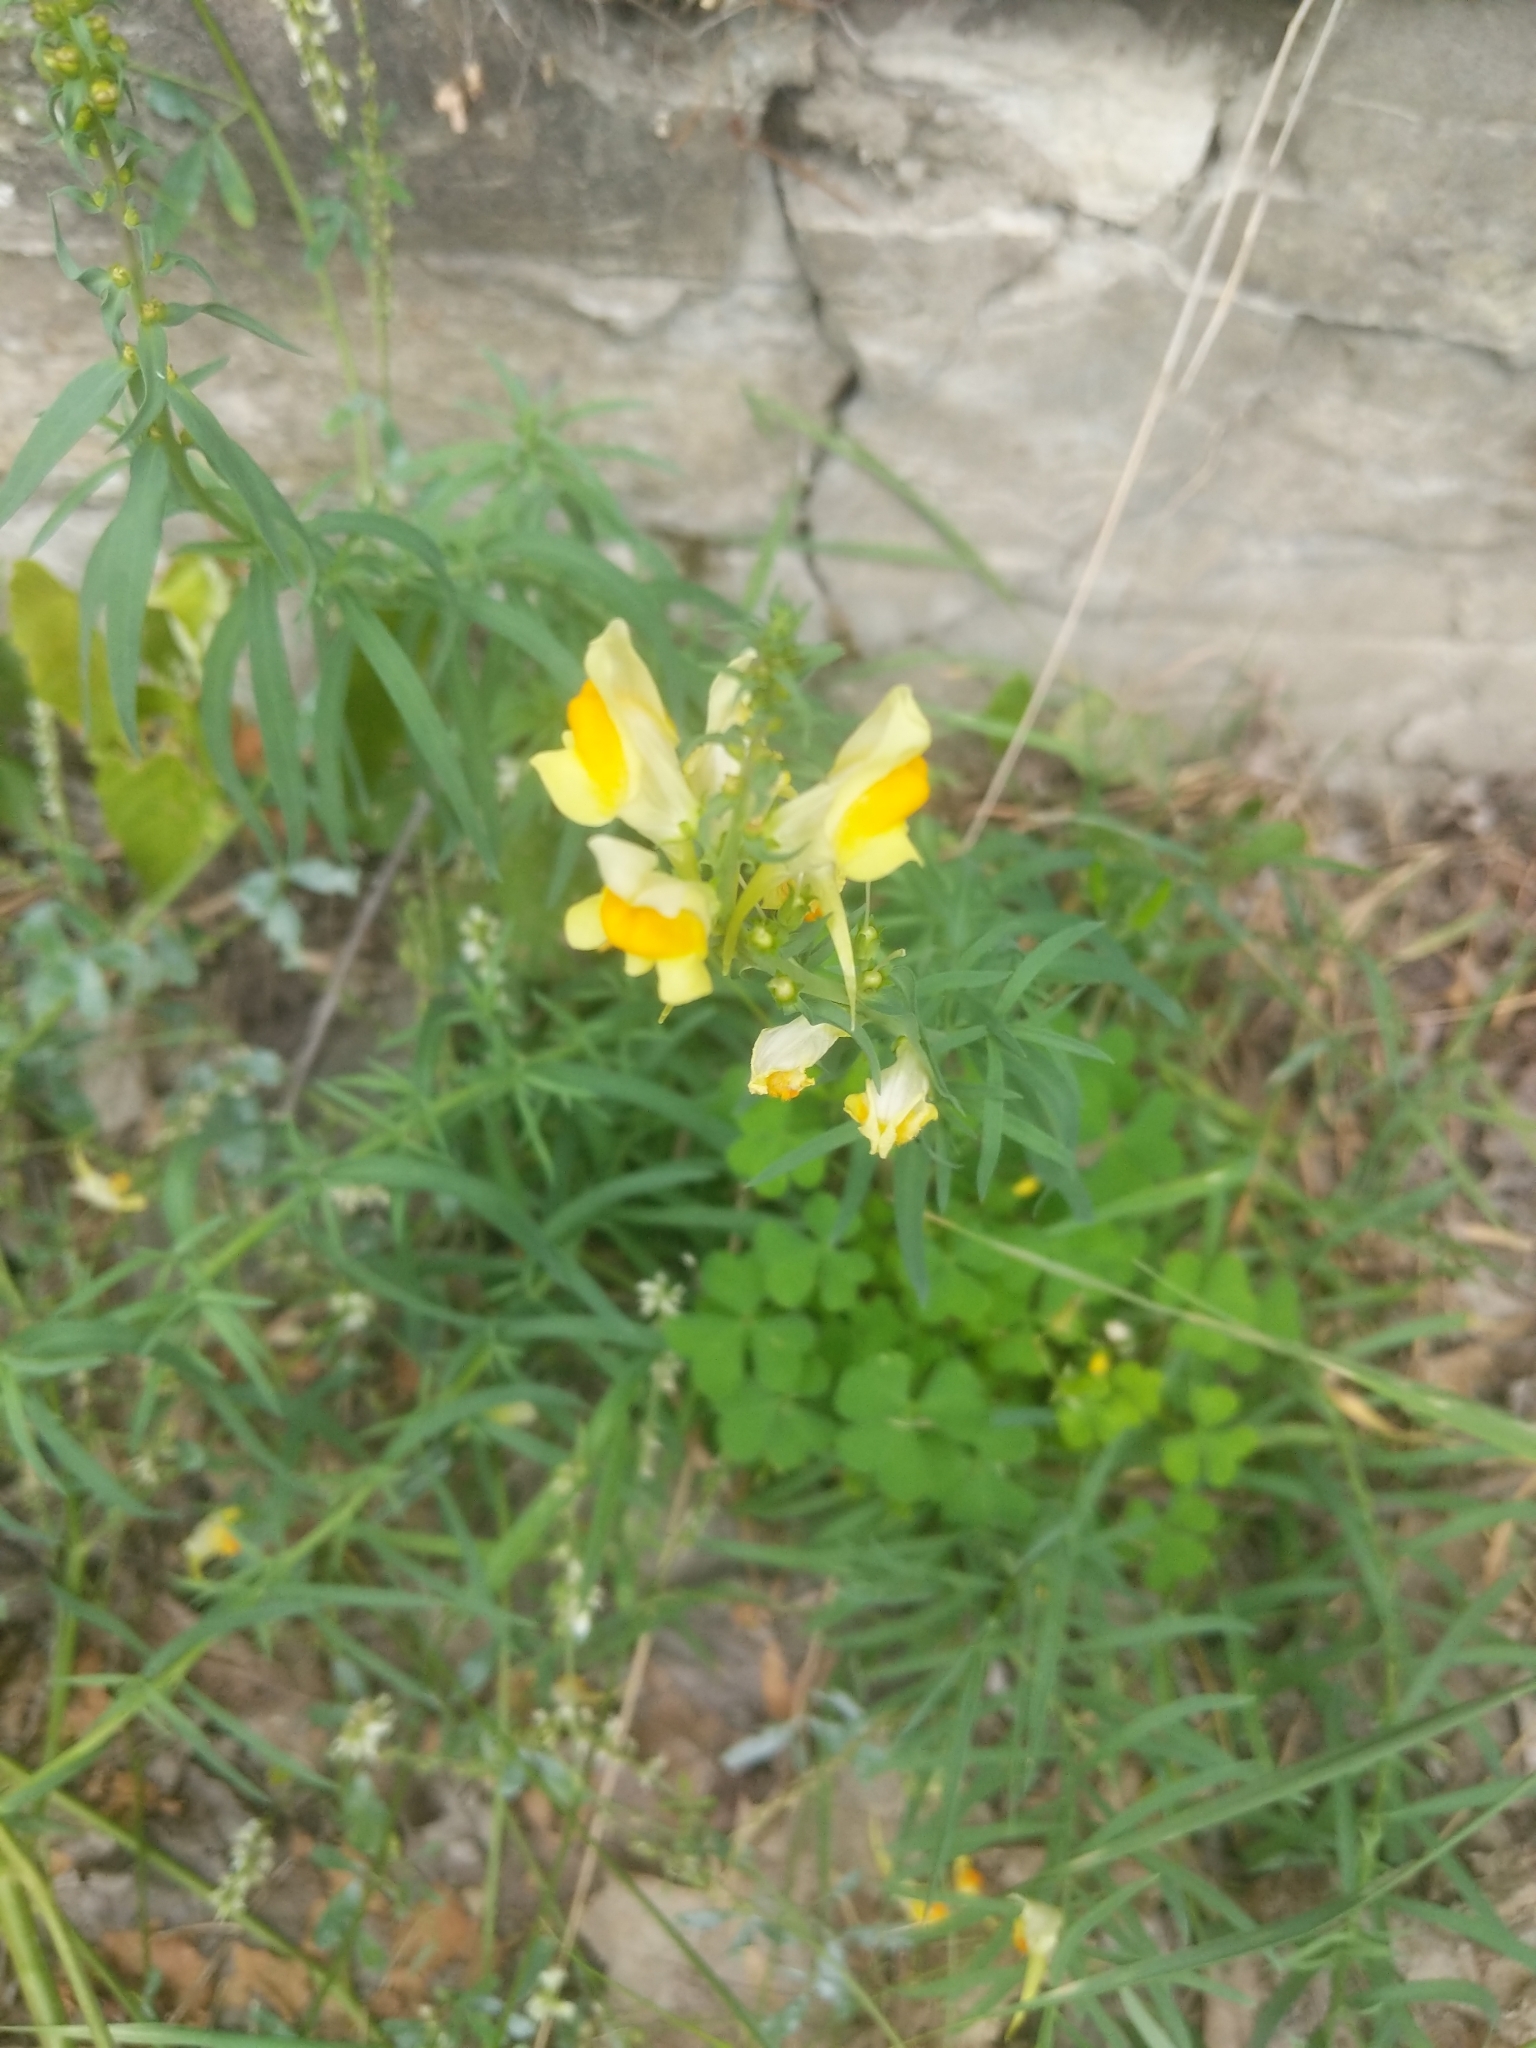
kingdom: Plantae
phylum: Tracheophyta
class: Magnoliopsida
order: Lamiales
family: Plantaginaceae
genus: Linaria
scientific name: Linaria vulgaris
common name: Butter and eggs
